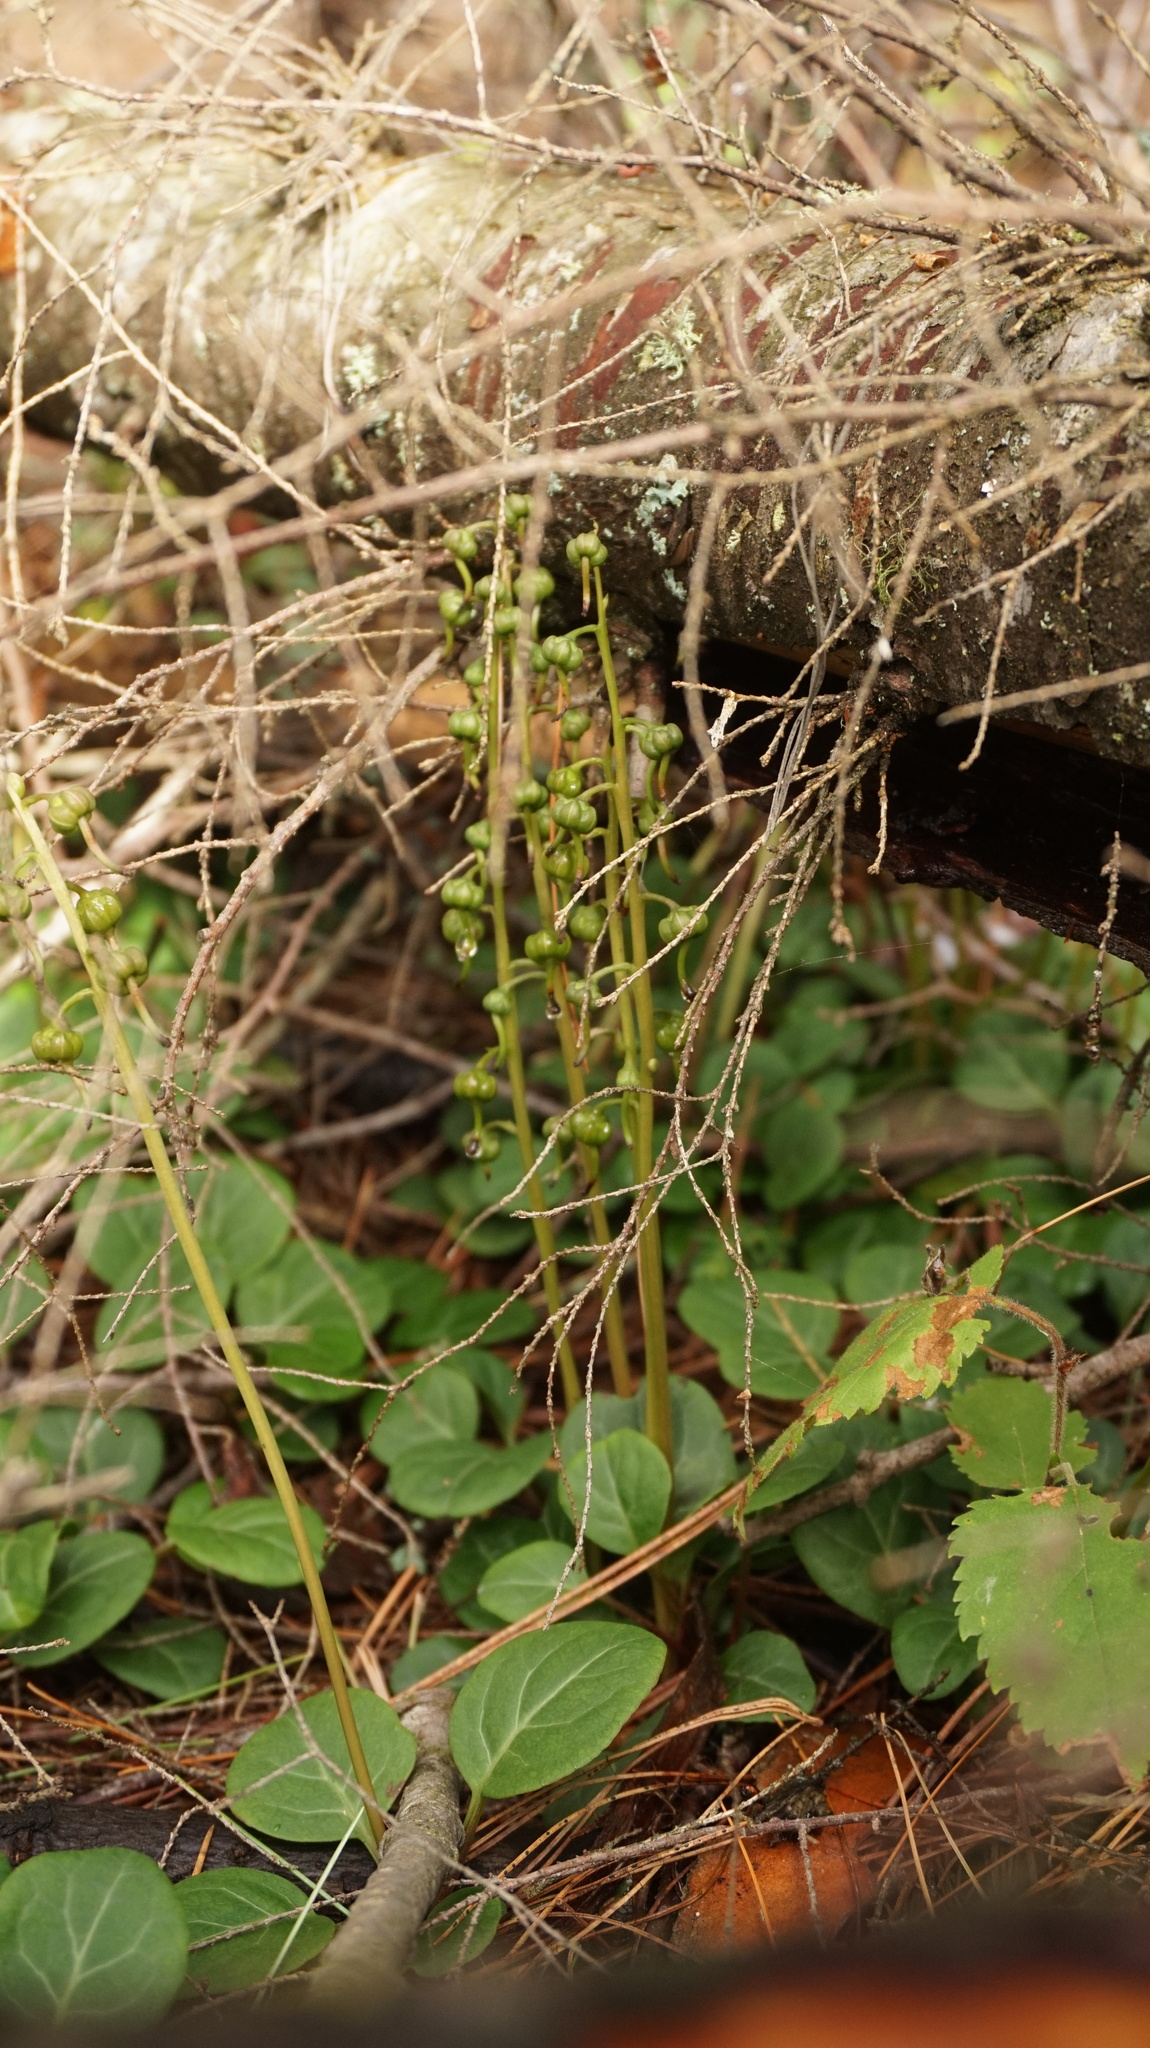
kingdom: Plantae
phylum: Tracheophyta
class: Magnoliopsida
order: Ericales
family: Ericaceae
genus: Pyrola
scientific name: Pyrola chlorantha
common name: Green wintergreen
